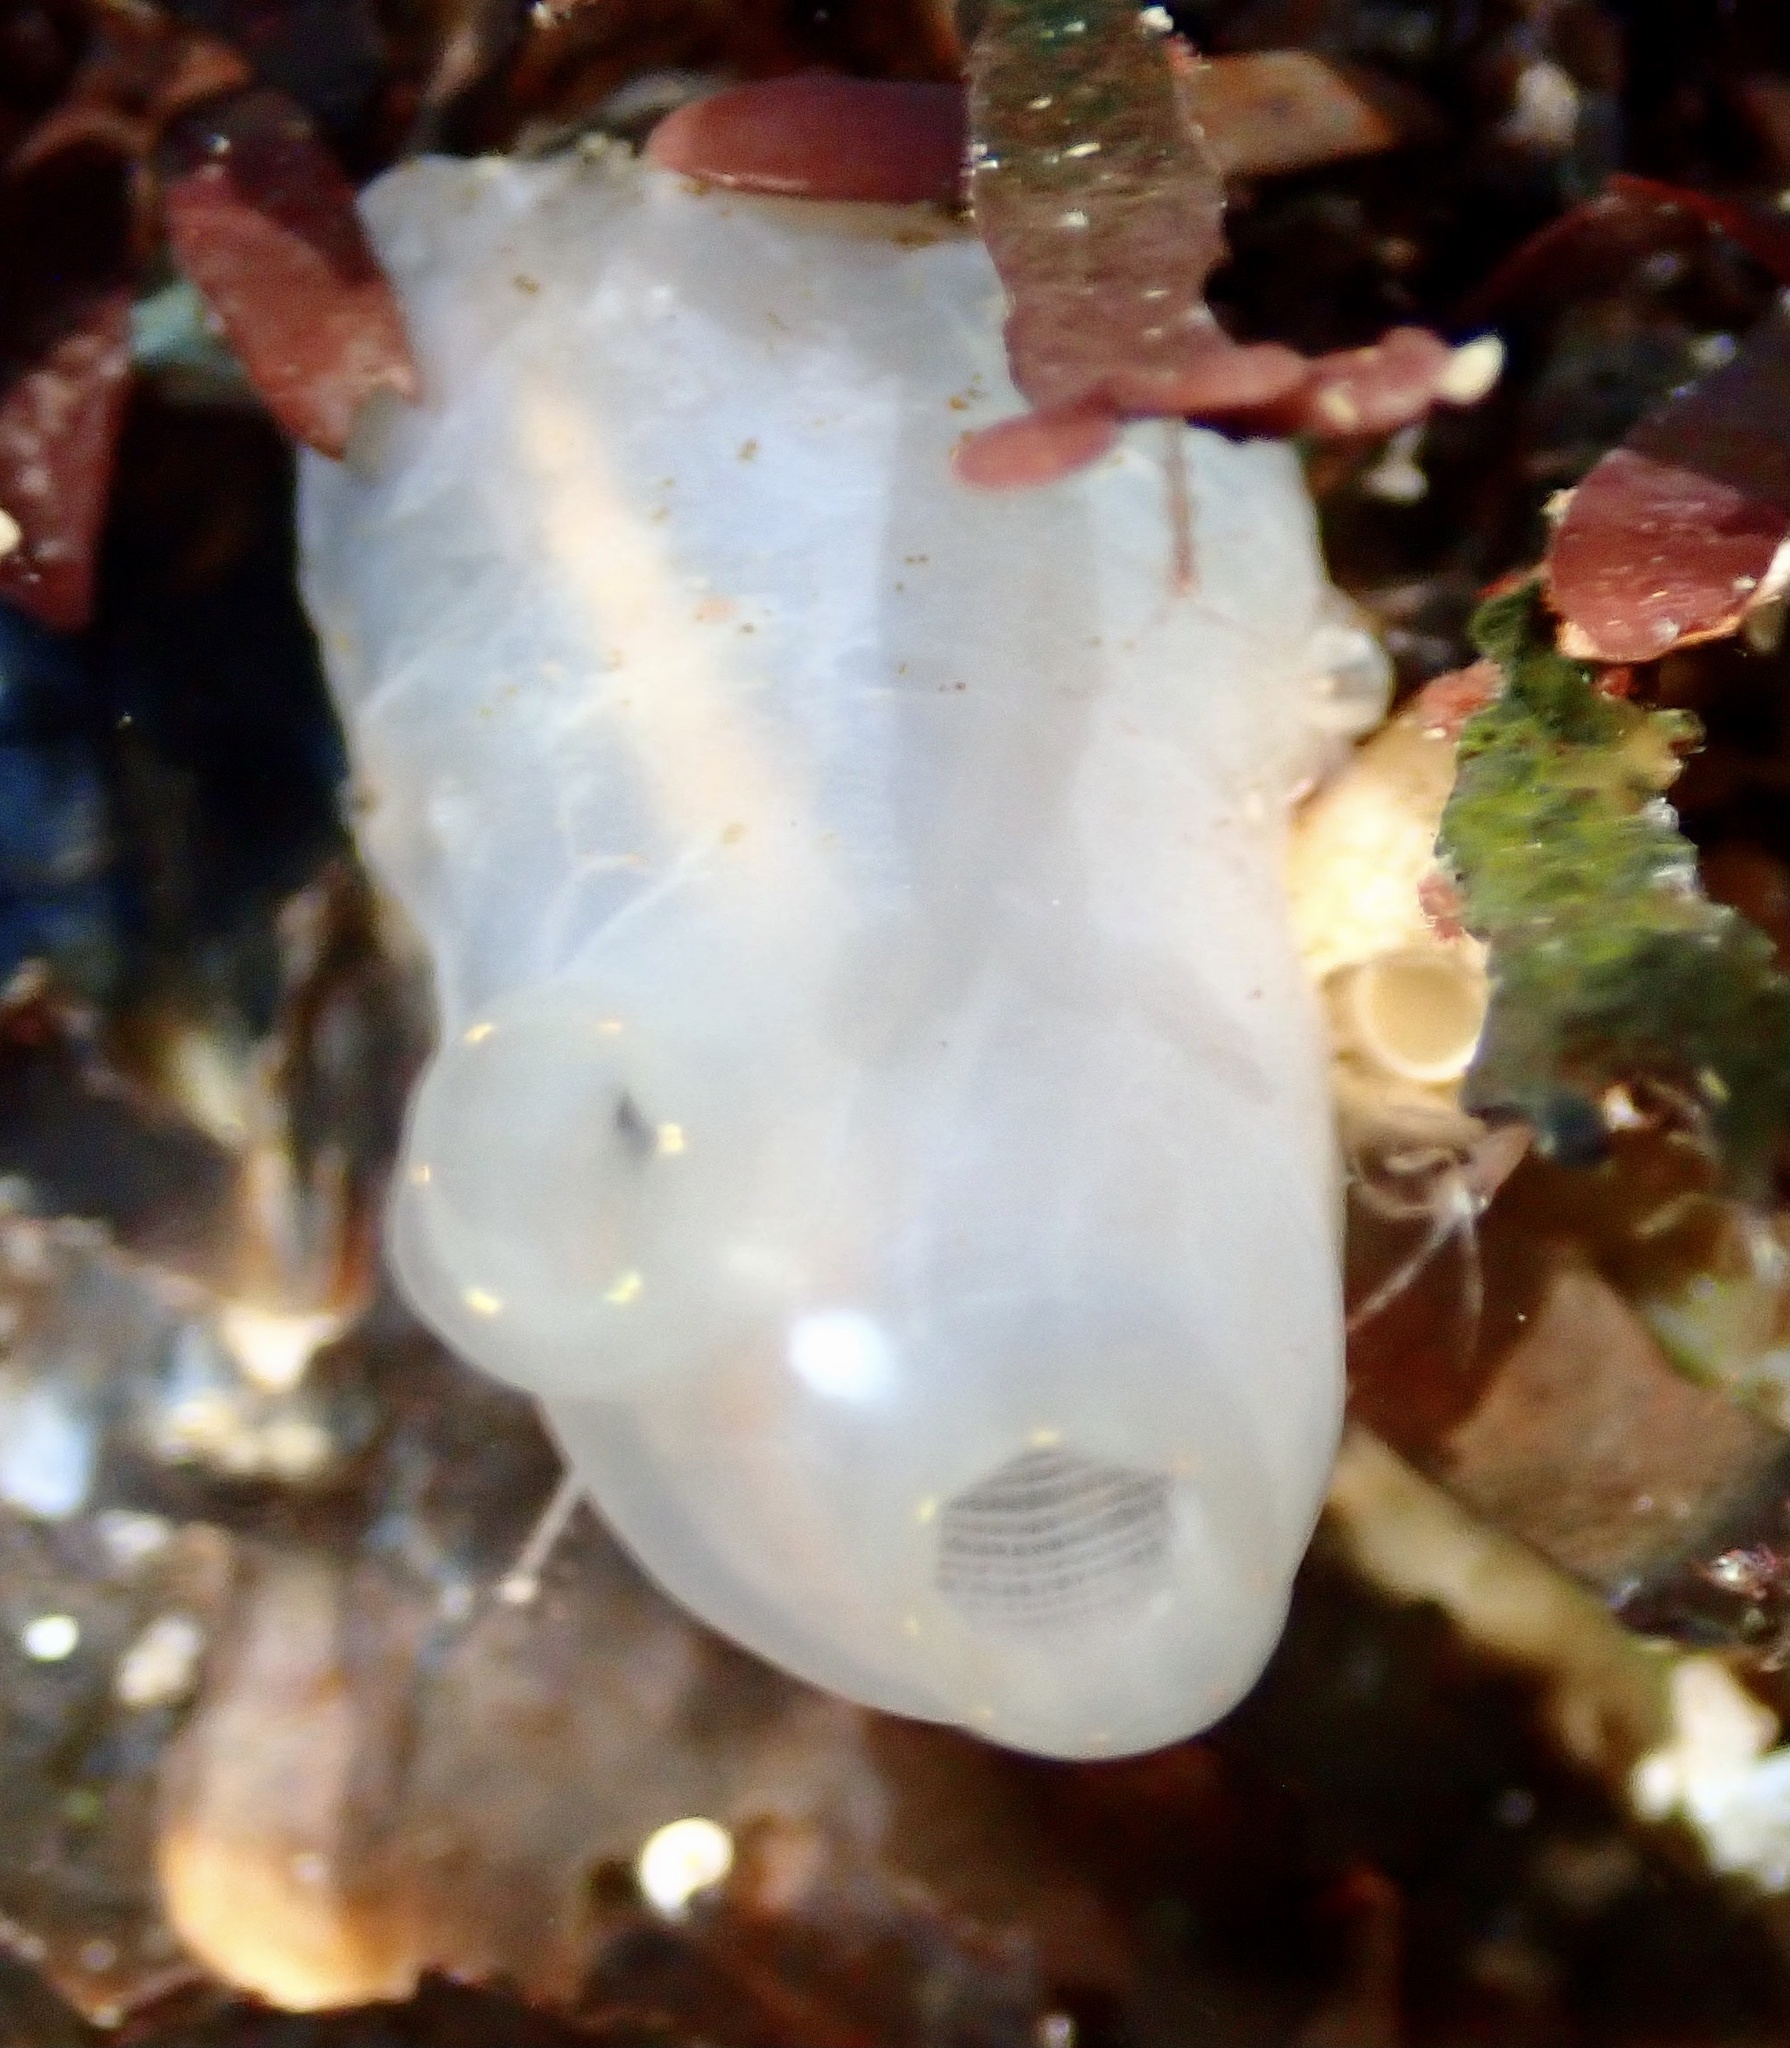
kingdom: Animalia
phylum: Chordata
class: Ascidiacea
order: Phlebobranchia
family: Cionidae
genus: Ciona
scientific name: Ciona intestinalis
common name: Vase tunicate
